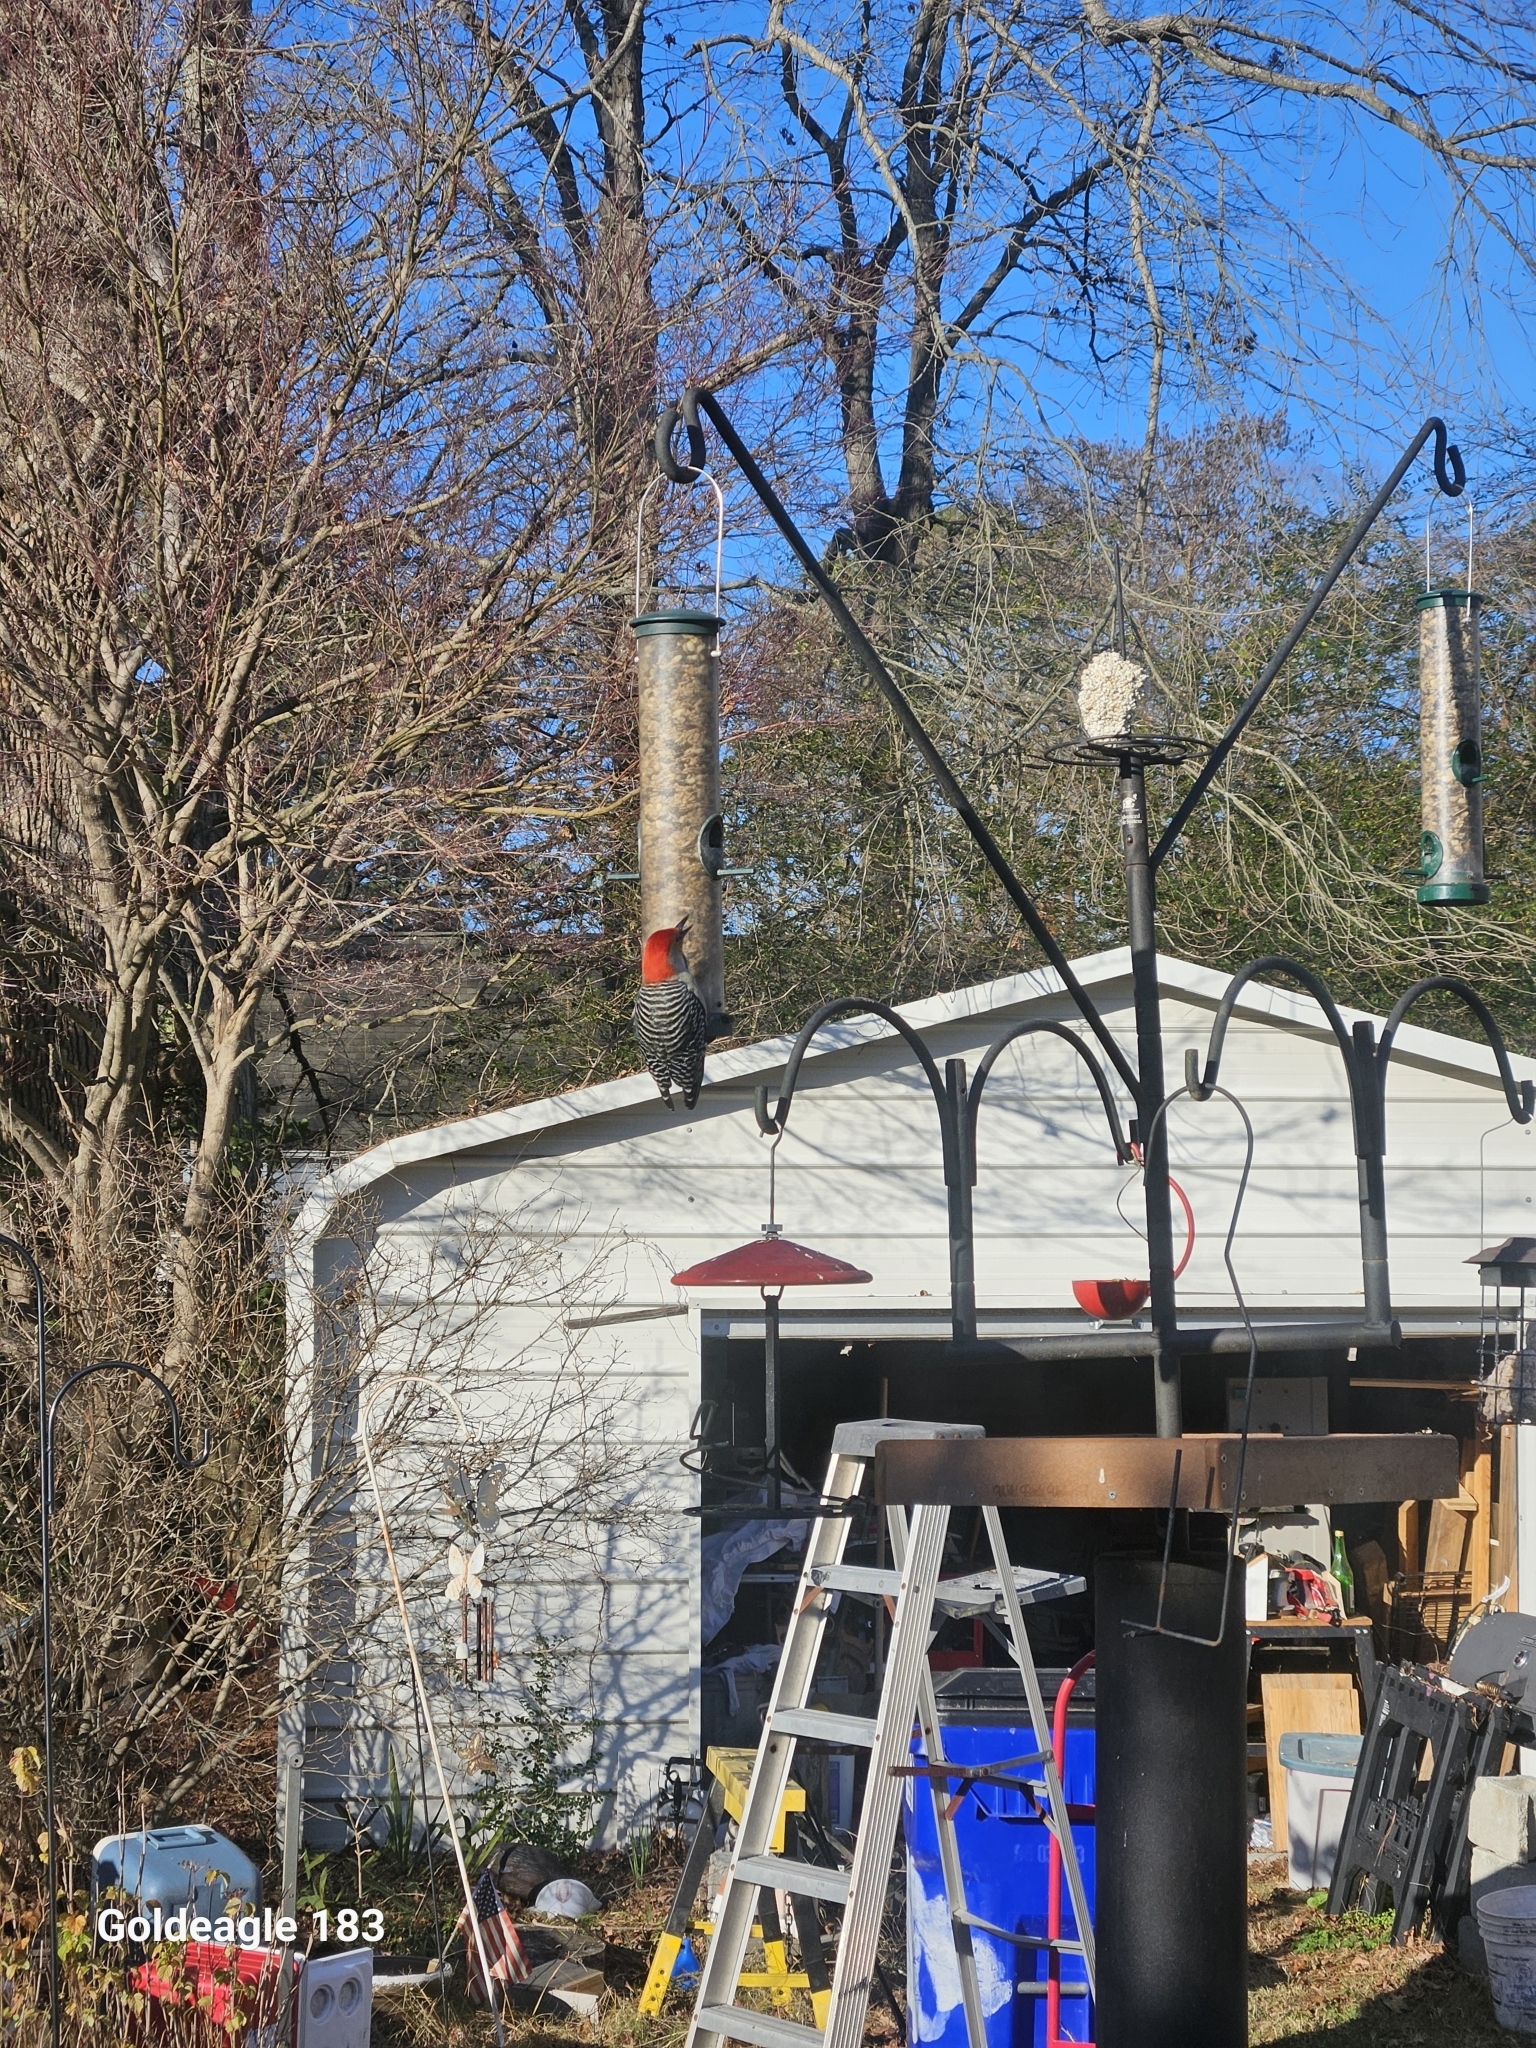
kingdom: Animalia
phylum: Chordata
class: Aves
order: Piciformes
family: Picidae
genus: Melanerpes
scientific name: Melanerpes carolinus
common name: Red-bellied woodpecker
